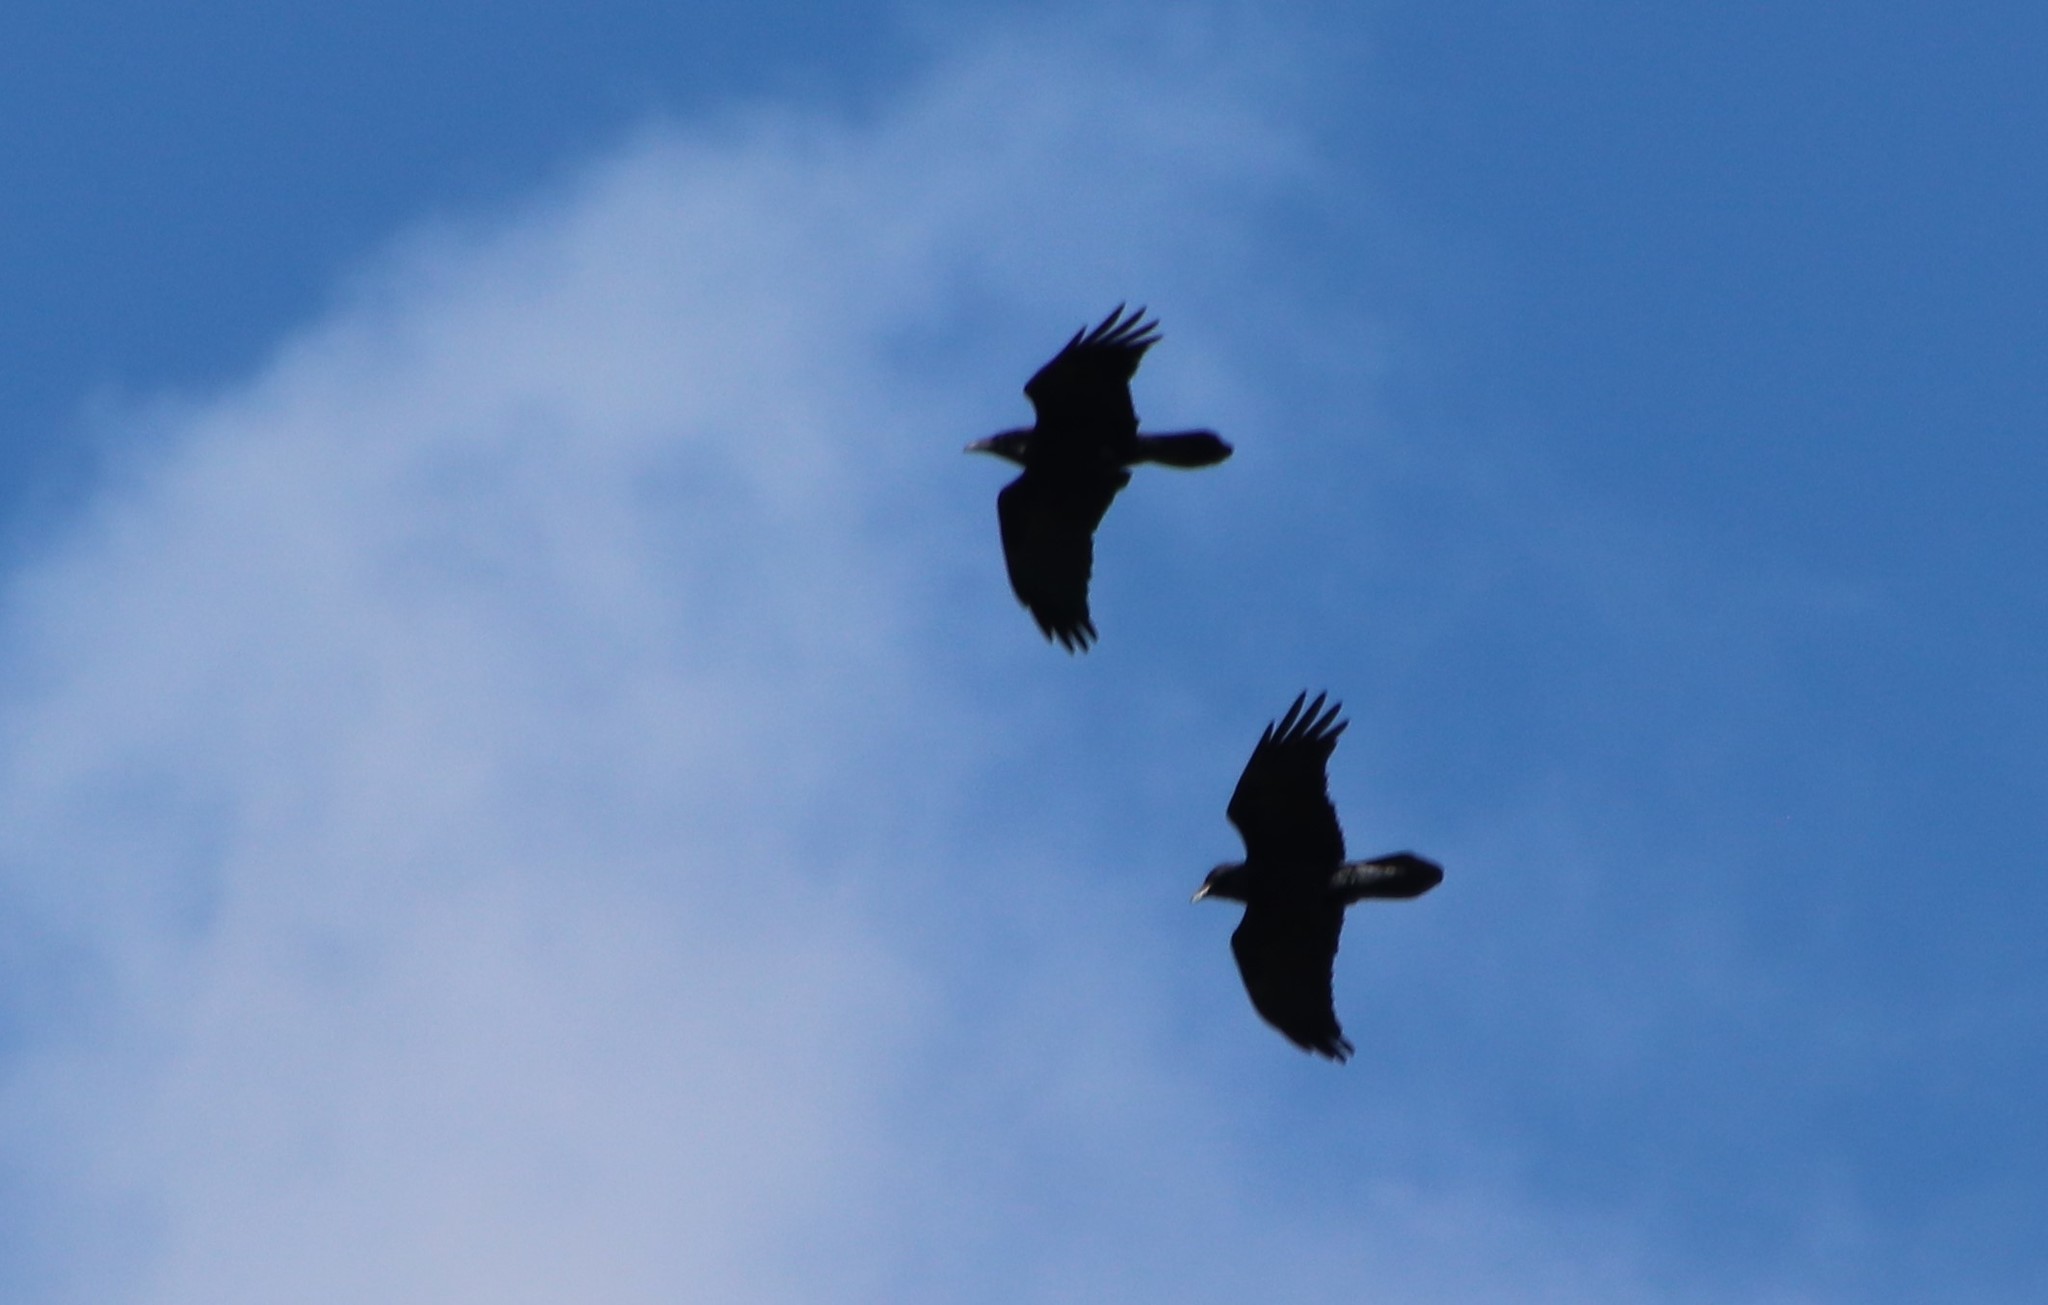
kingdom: Animalia
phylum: Chordata
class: Aves
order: Passeriformes
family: Corvidae
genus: Corvus
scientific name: Corvus corax
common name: Common raven
